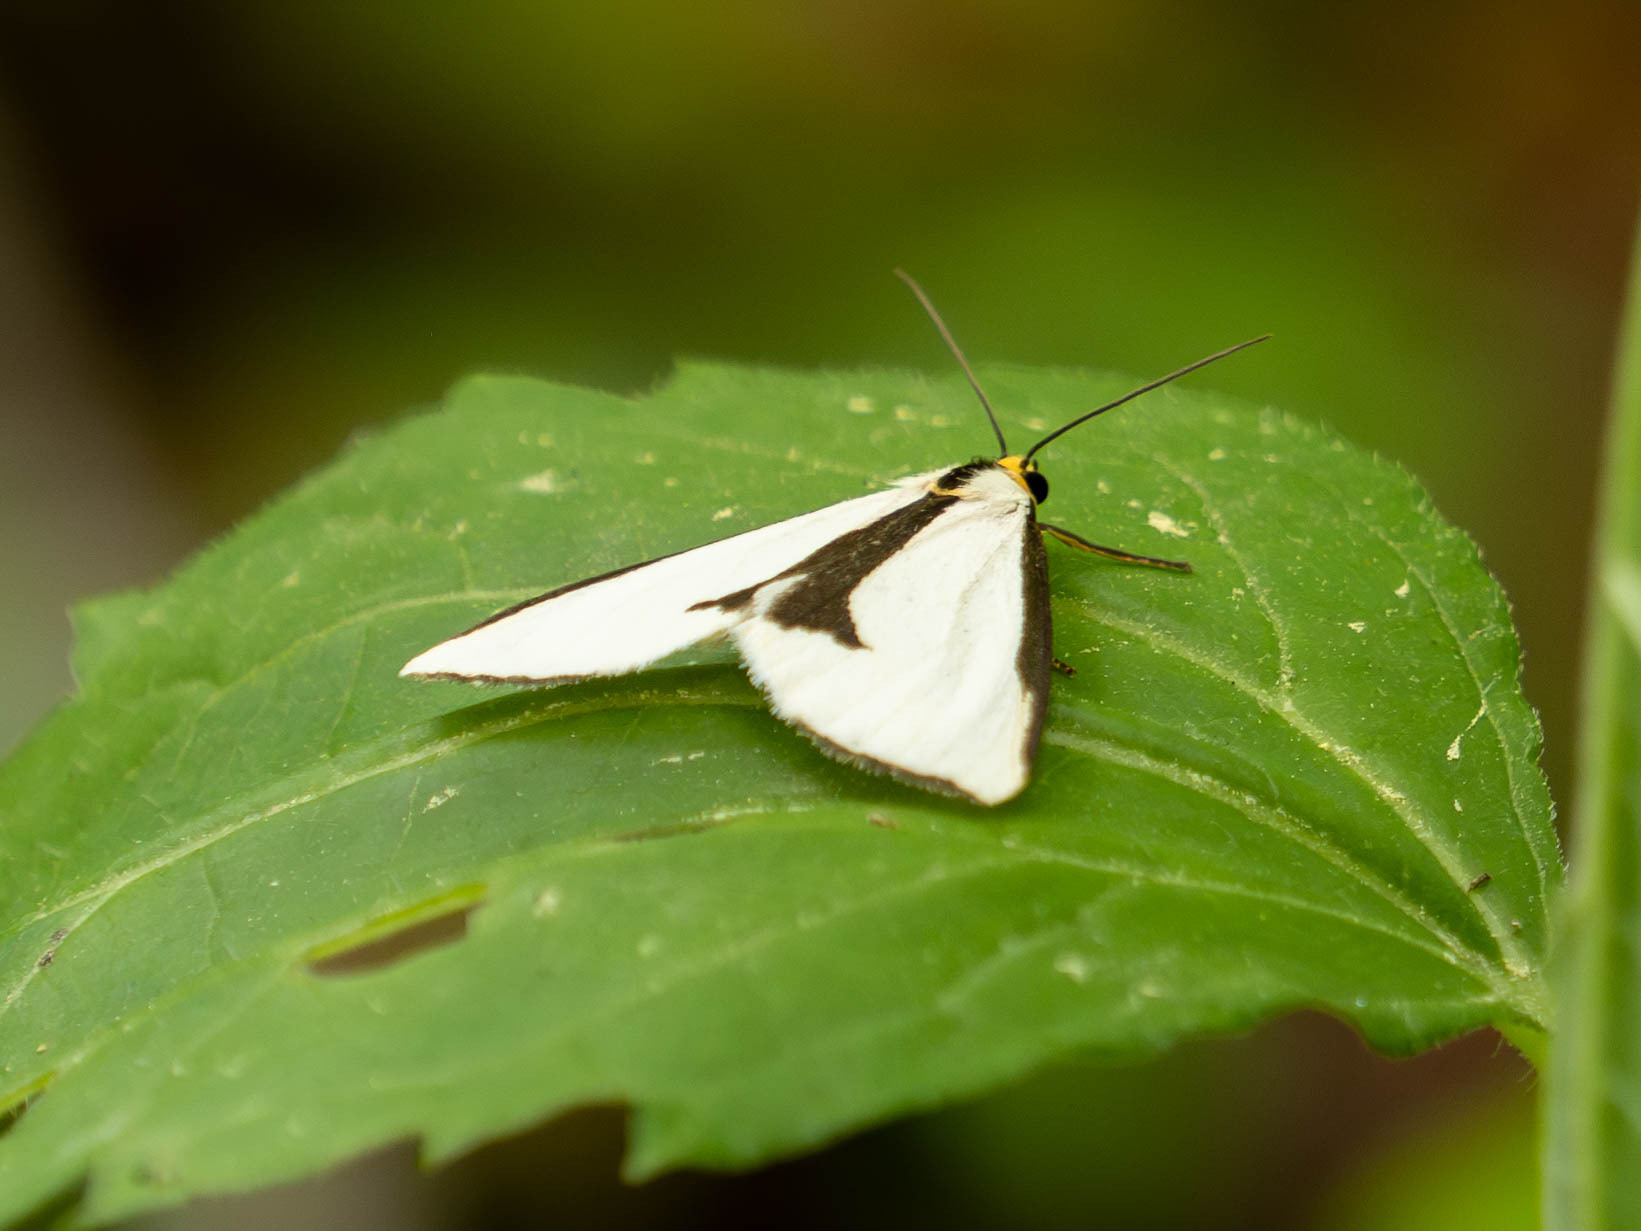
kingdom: Animalia
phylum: Arthropoda
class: Insecta
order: Lepidoptera
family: Erebidae
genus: Haploa
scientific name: Haploa clymene
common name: Clymene moth
